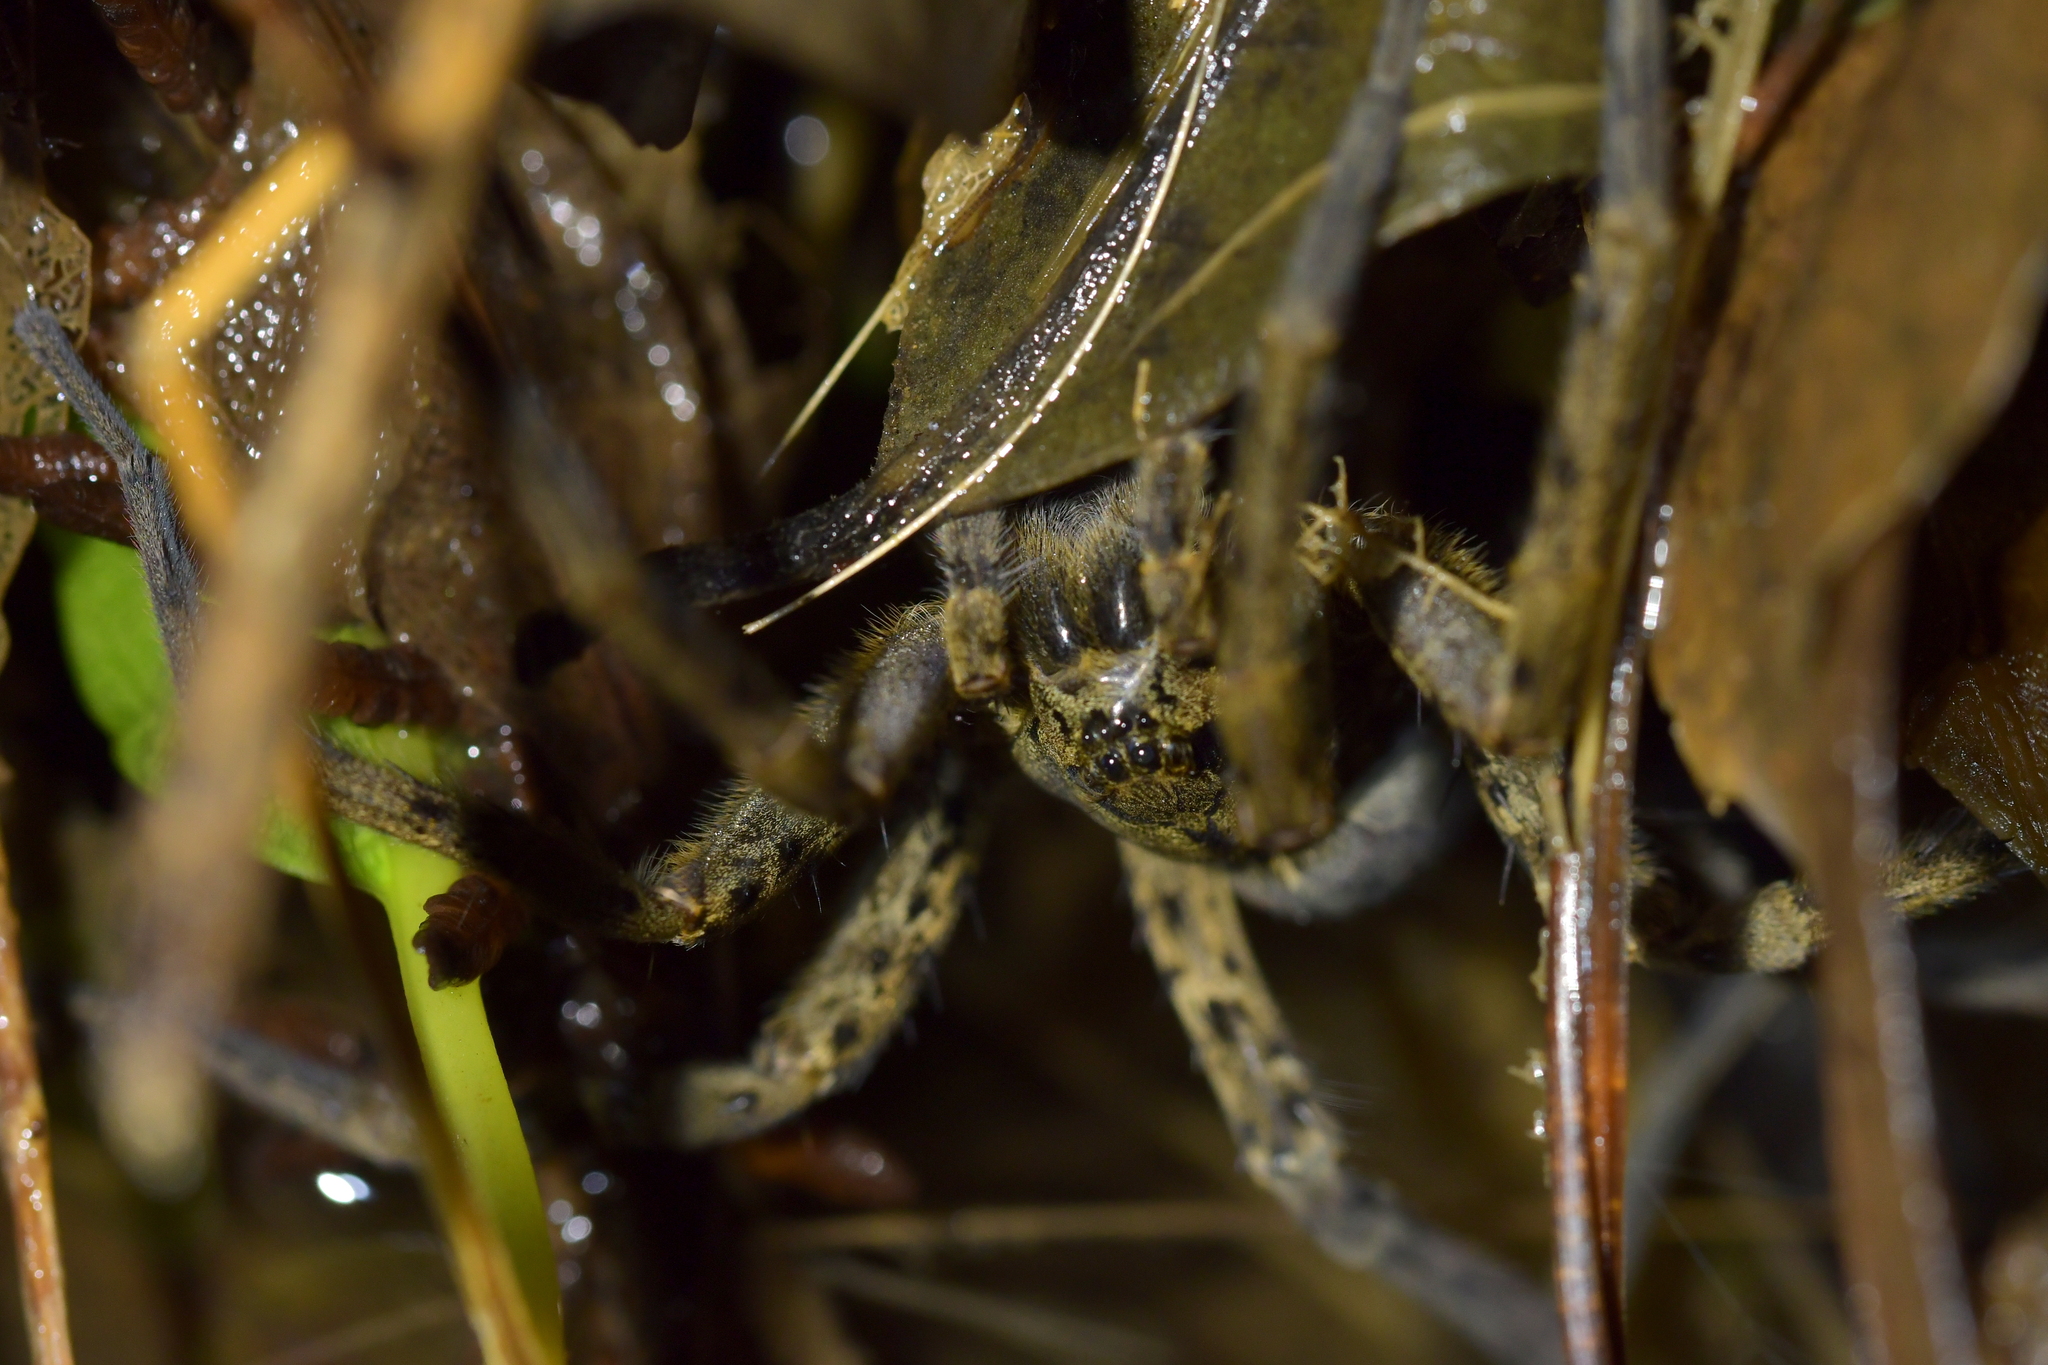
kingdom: Animalia
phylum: Arthropoda
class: Arachnida
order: Araneae
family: Pisauridae
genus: Dolomedes
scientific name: Dolomedes dondalei
